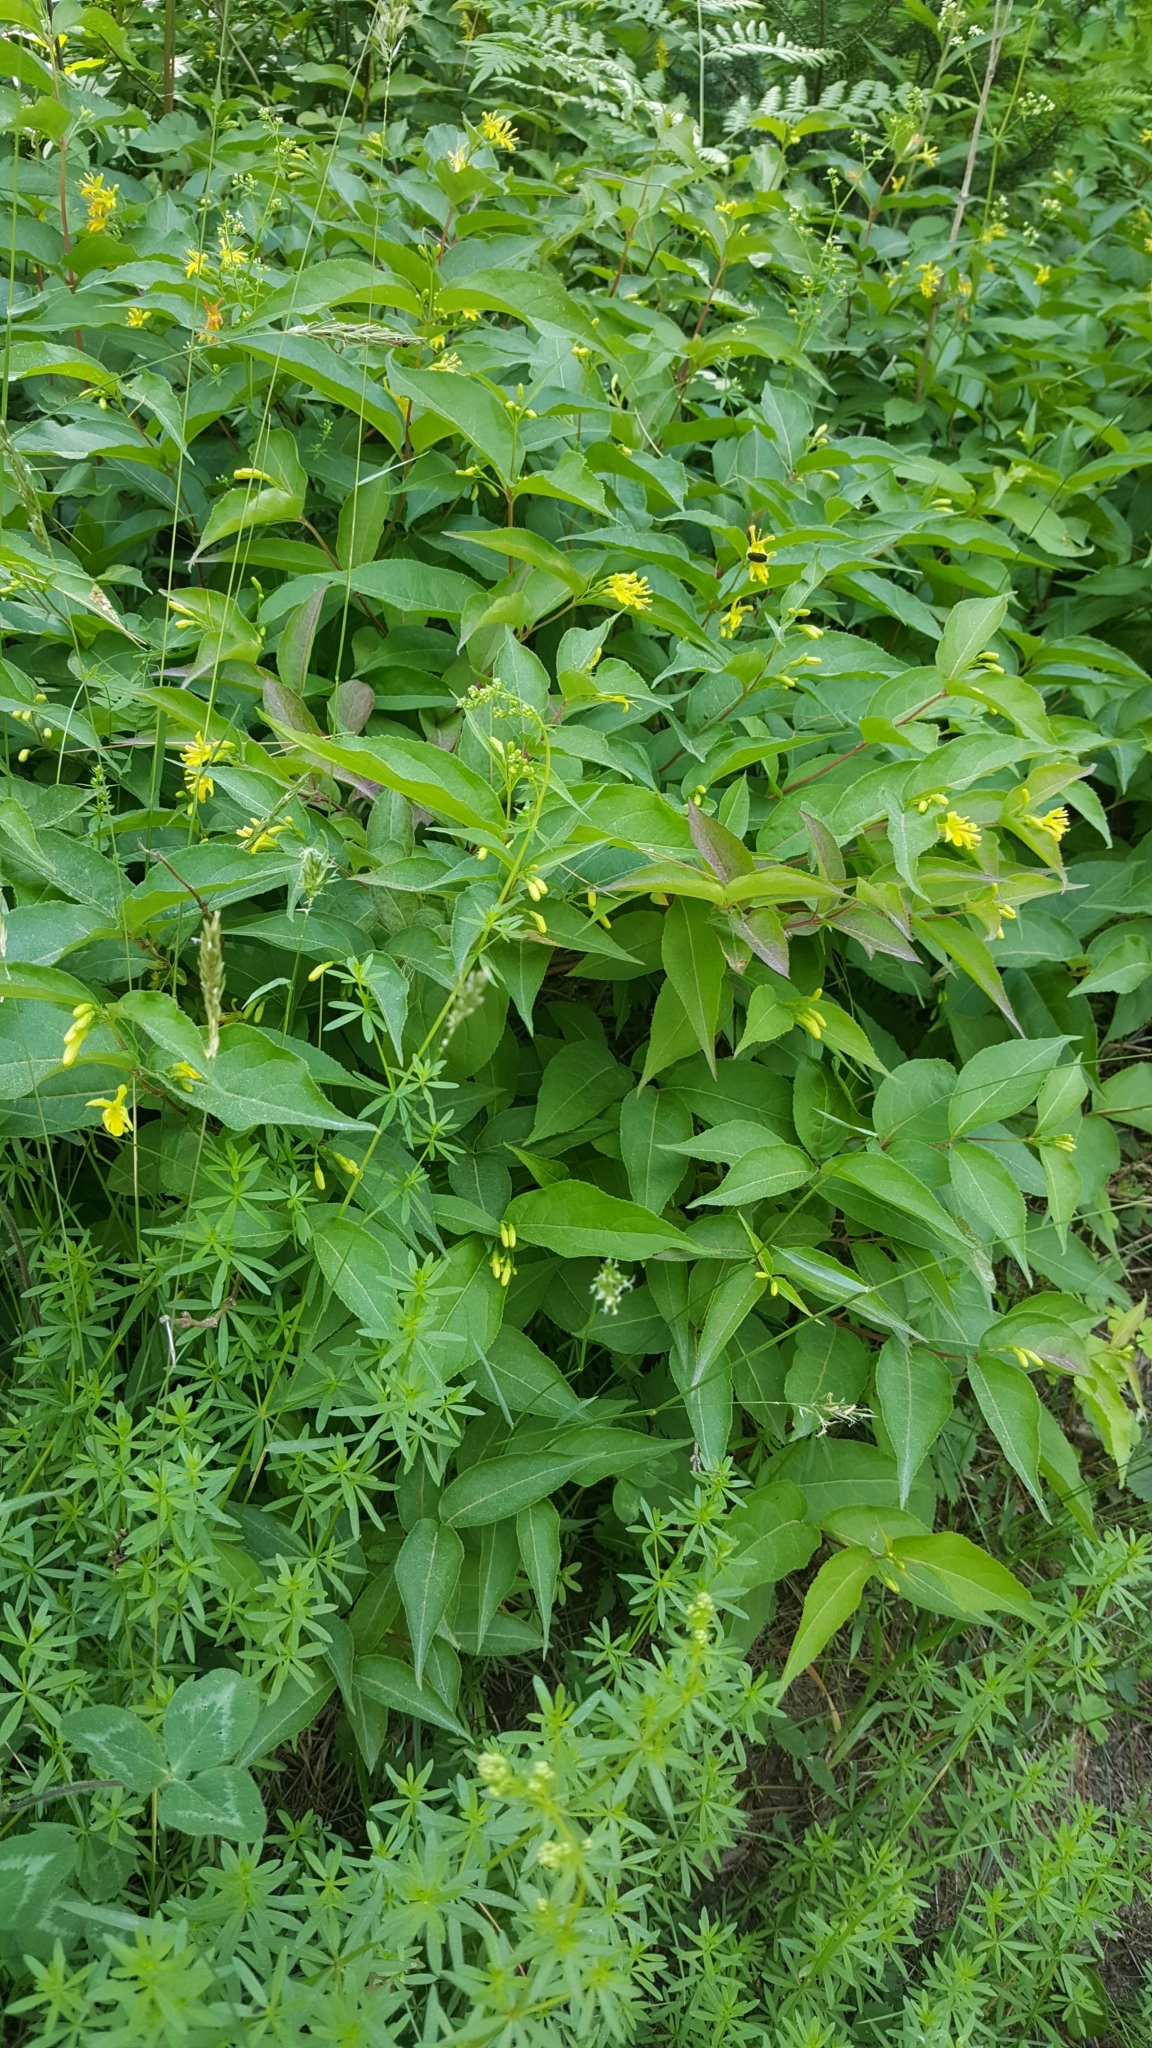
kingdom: Plantae
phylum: Tracheophyta
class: Magnoliopsida
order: Dipsacales
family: Caprifoliaceae
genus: Diervilla
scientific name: Diervilla lonicera
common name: Bush-honeysuckle
